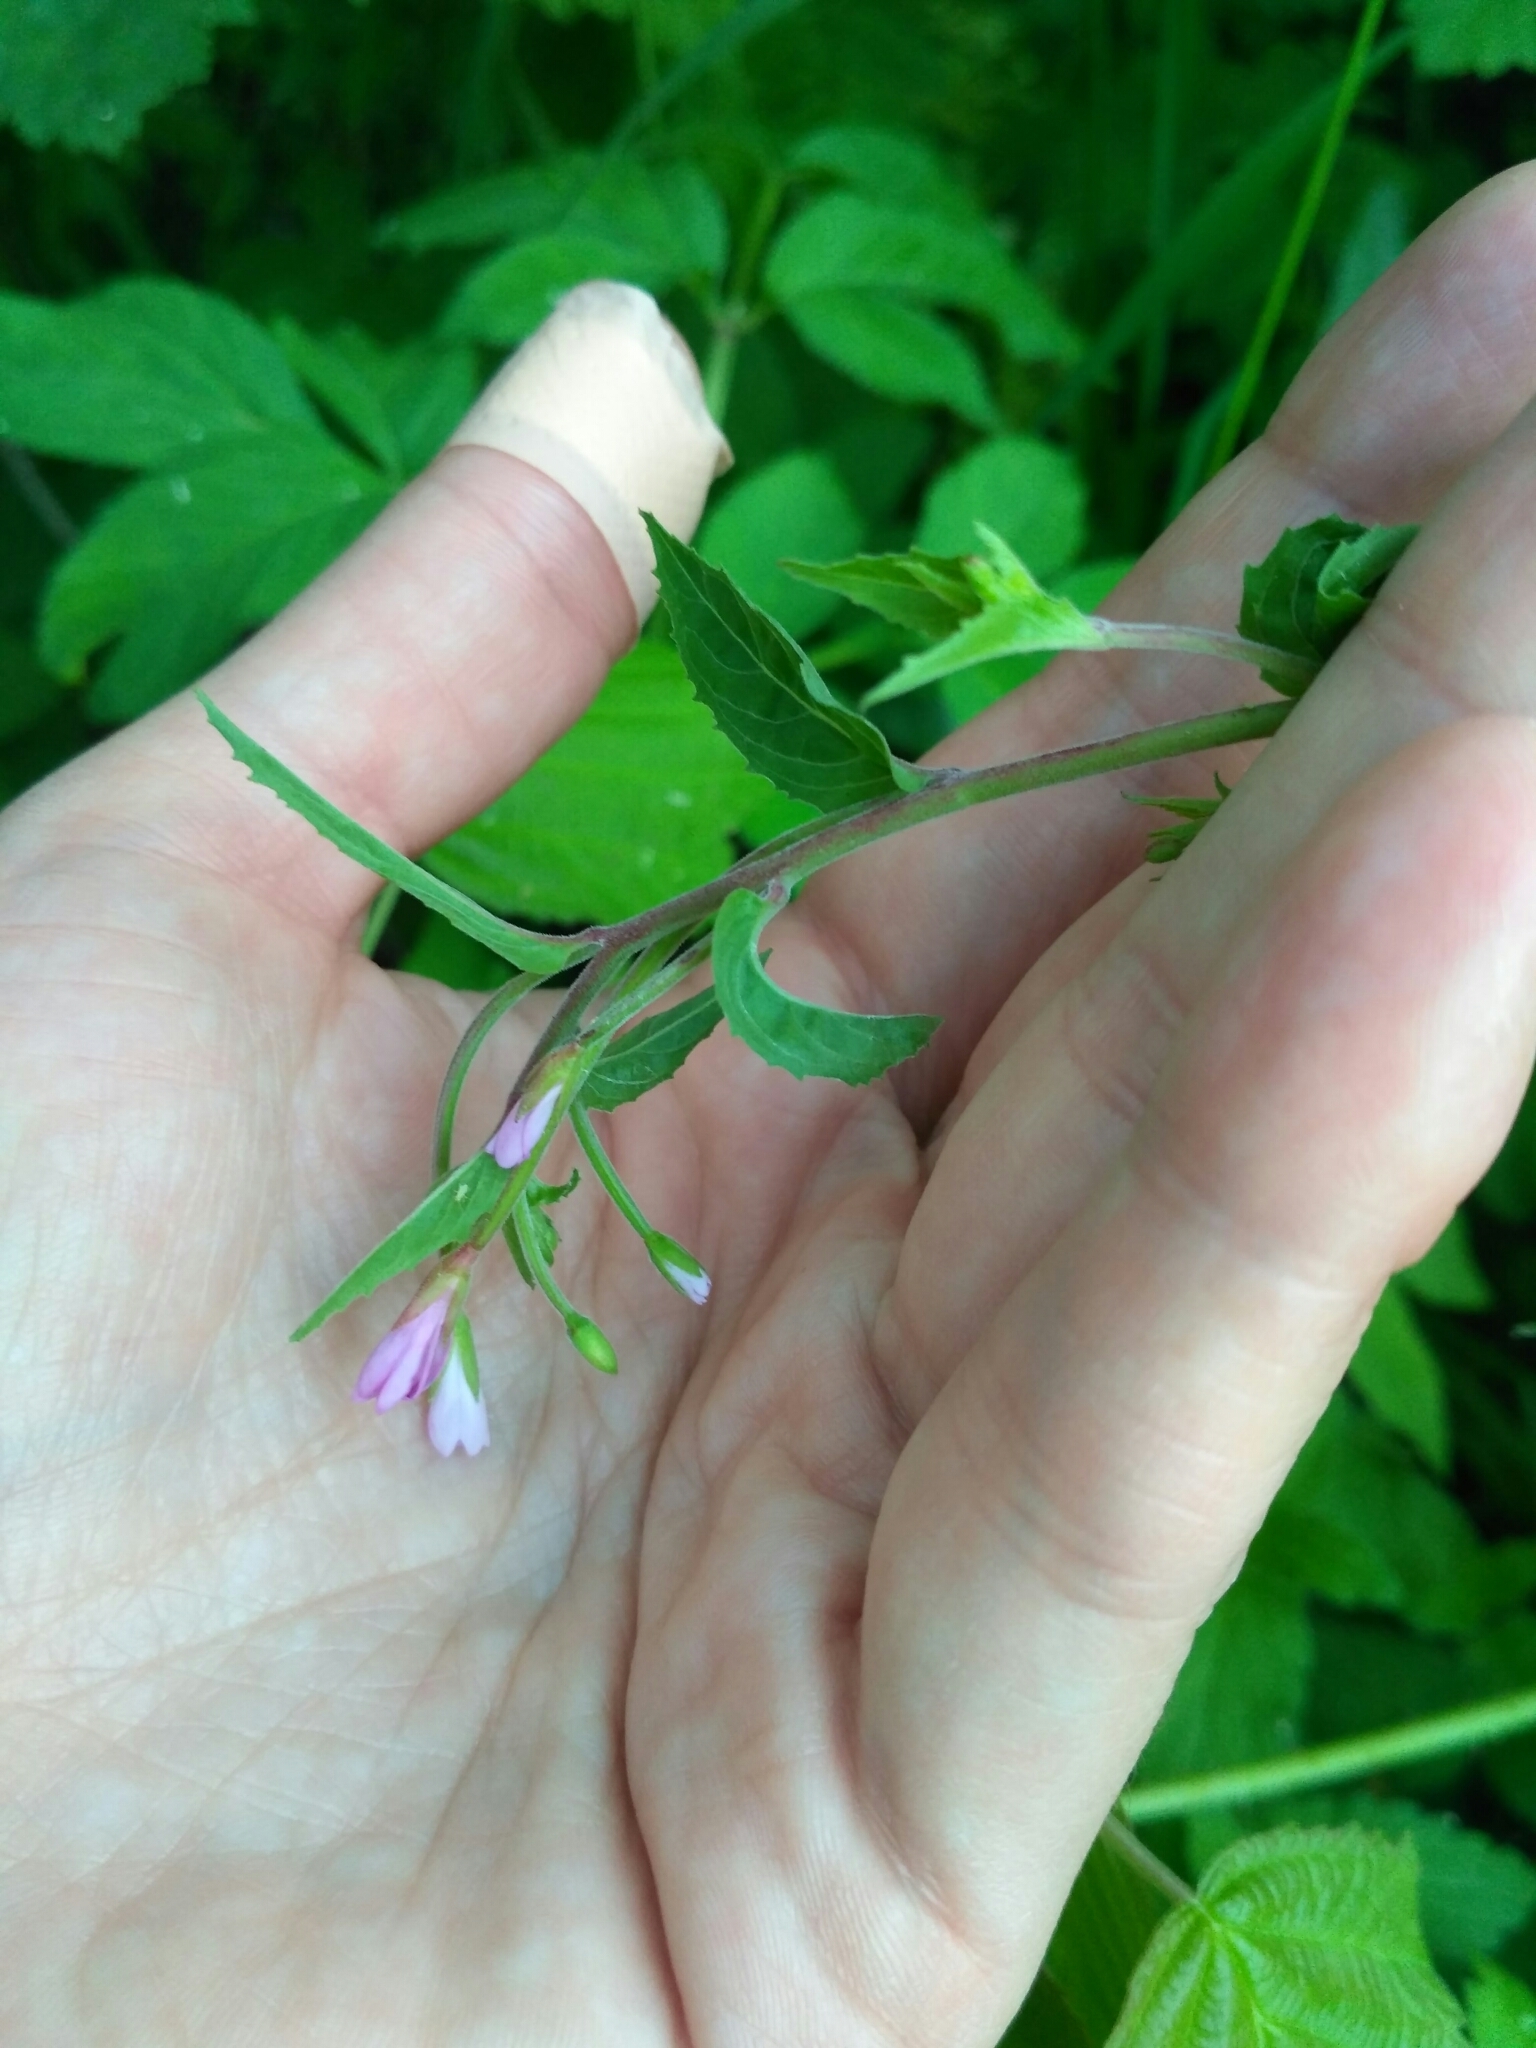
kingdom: Plantae
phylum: Tracheophyta
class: Magnoliopsida
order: Myrtales
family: Onagraceae
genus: Epilobium
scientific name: Epilobium montanum
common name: Broad-leaved willowherb
